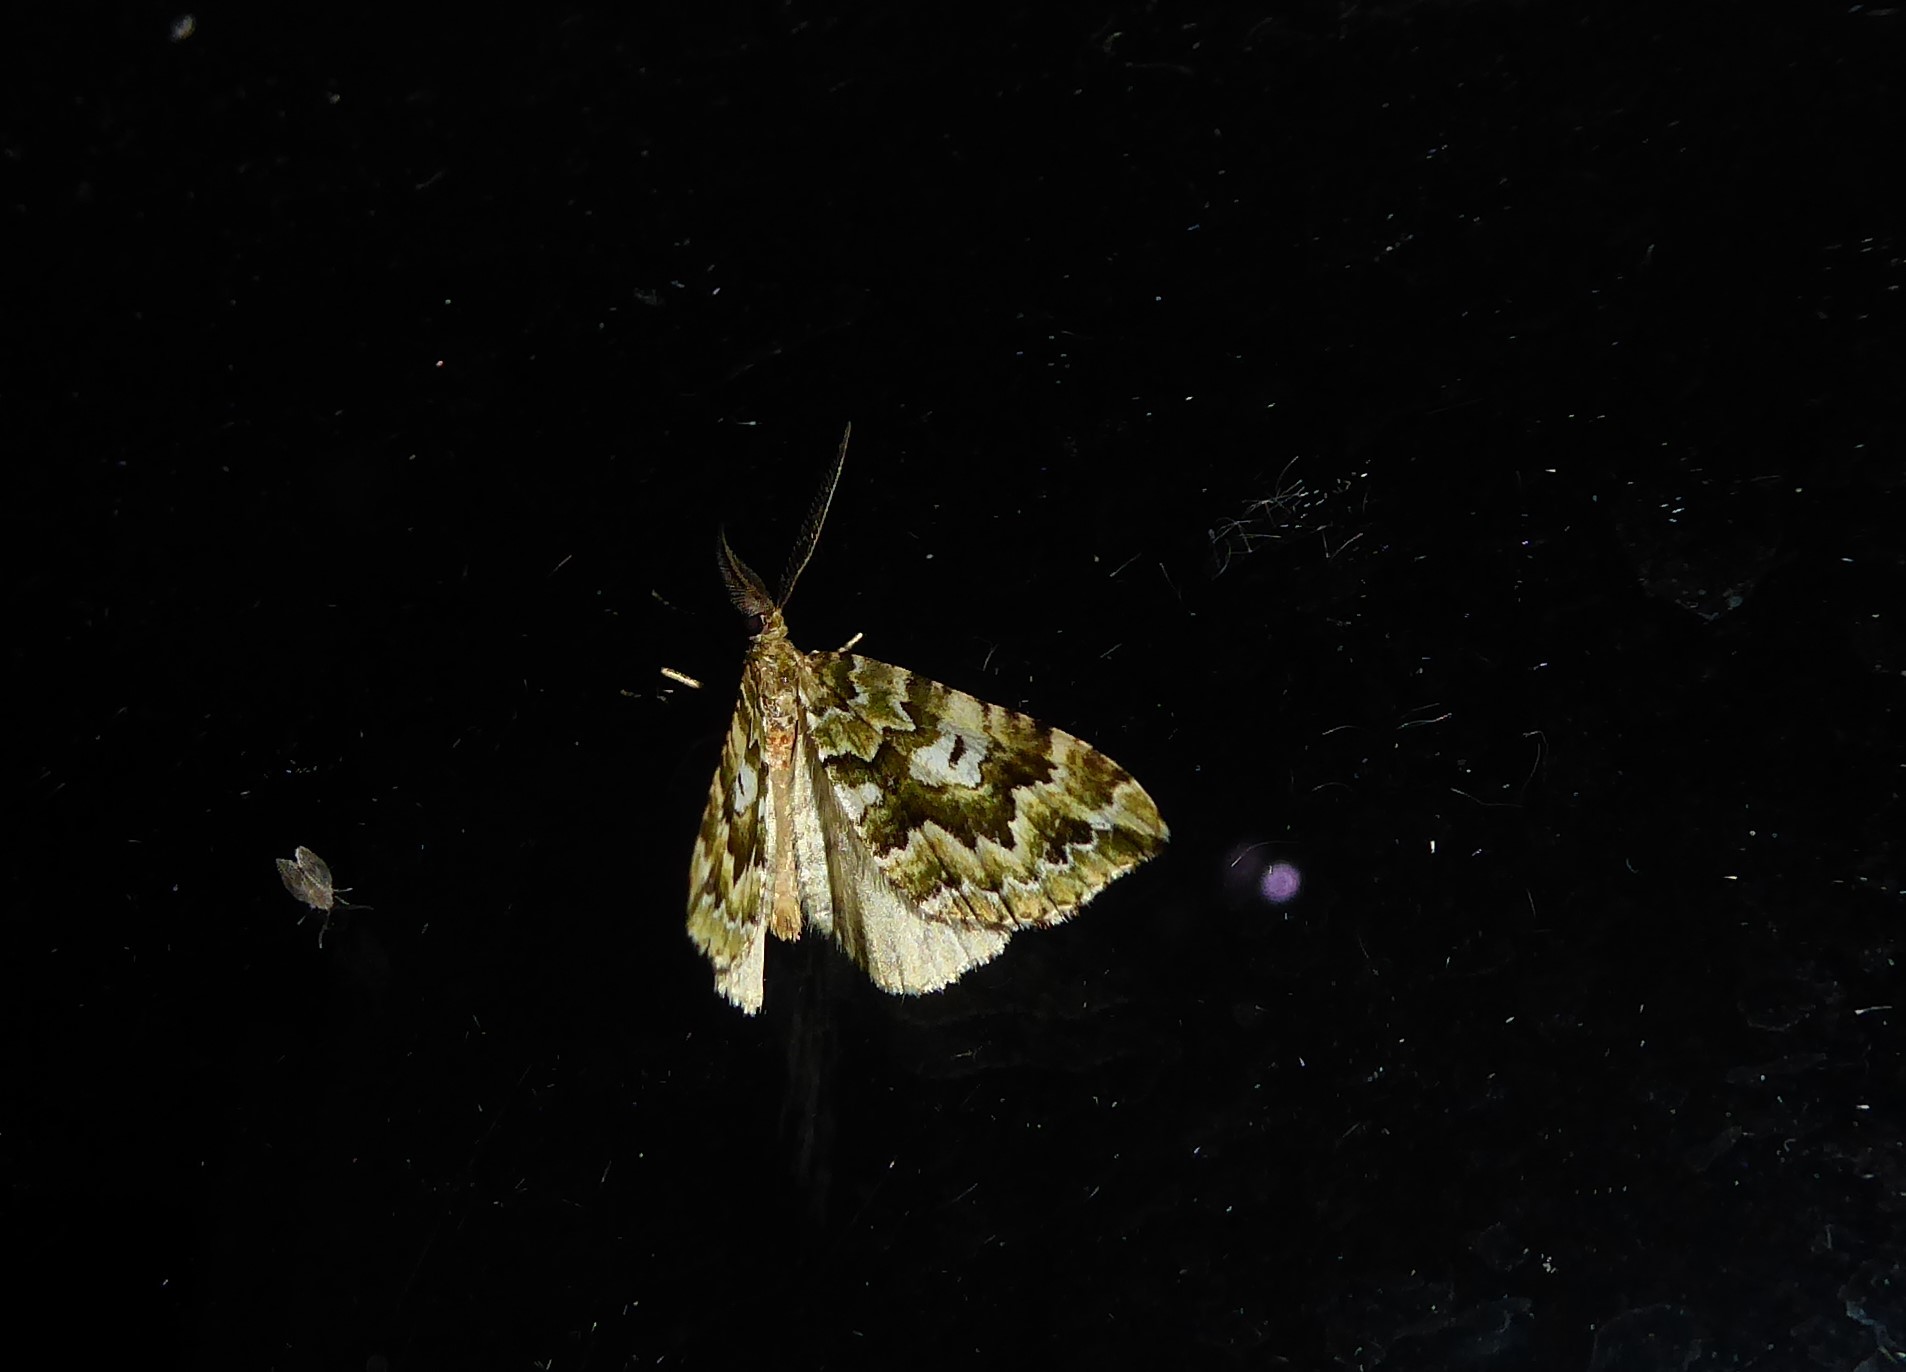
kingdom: Animalia
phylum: Arthropoda
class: Insecta
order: Lepidoptera
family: Geometridae
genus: Asaphodes
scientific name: Asaphodes beata
